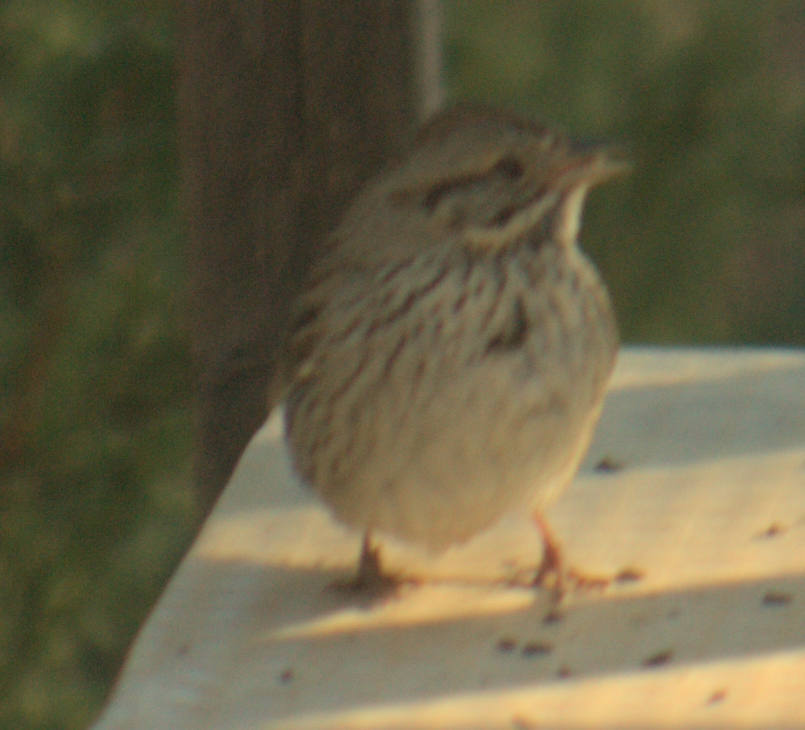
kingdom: Animalia
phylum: Chordata
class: Aves
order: Passeriformes
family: Passerellidae
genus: Melospiza
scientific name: Melospiza lincolnii
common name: Lincoln's sparrow
